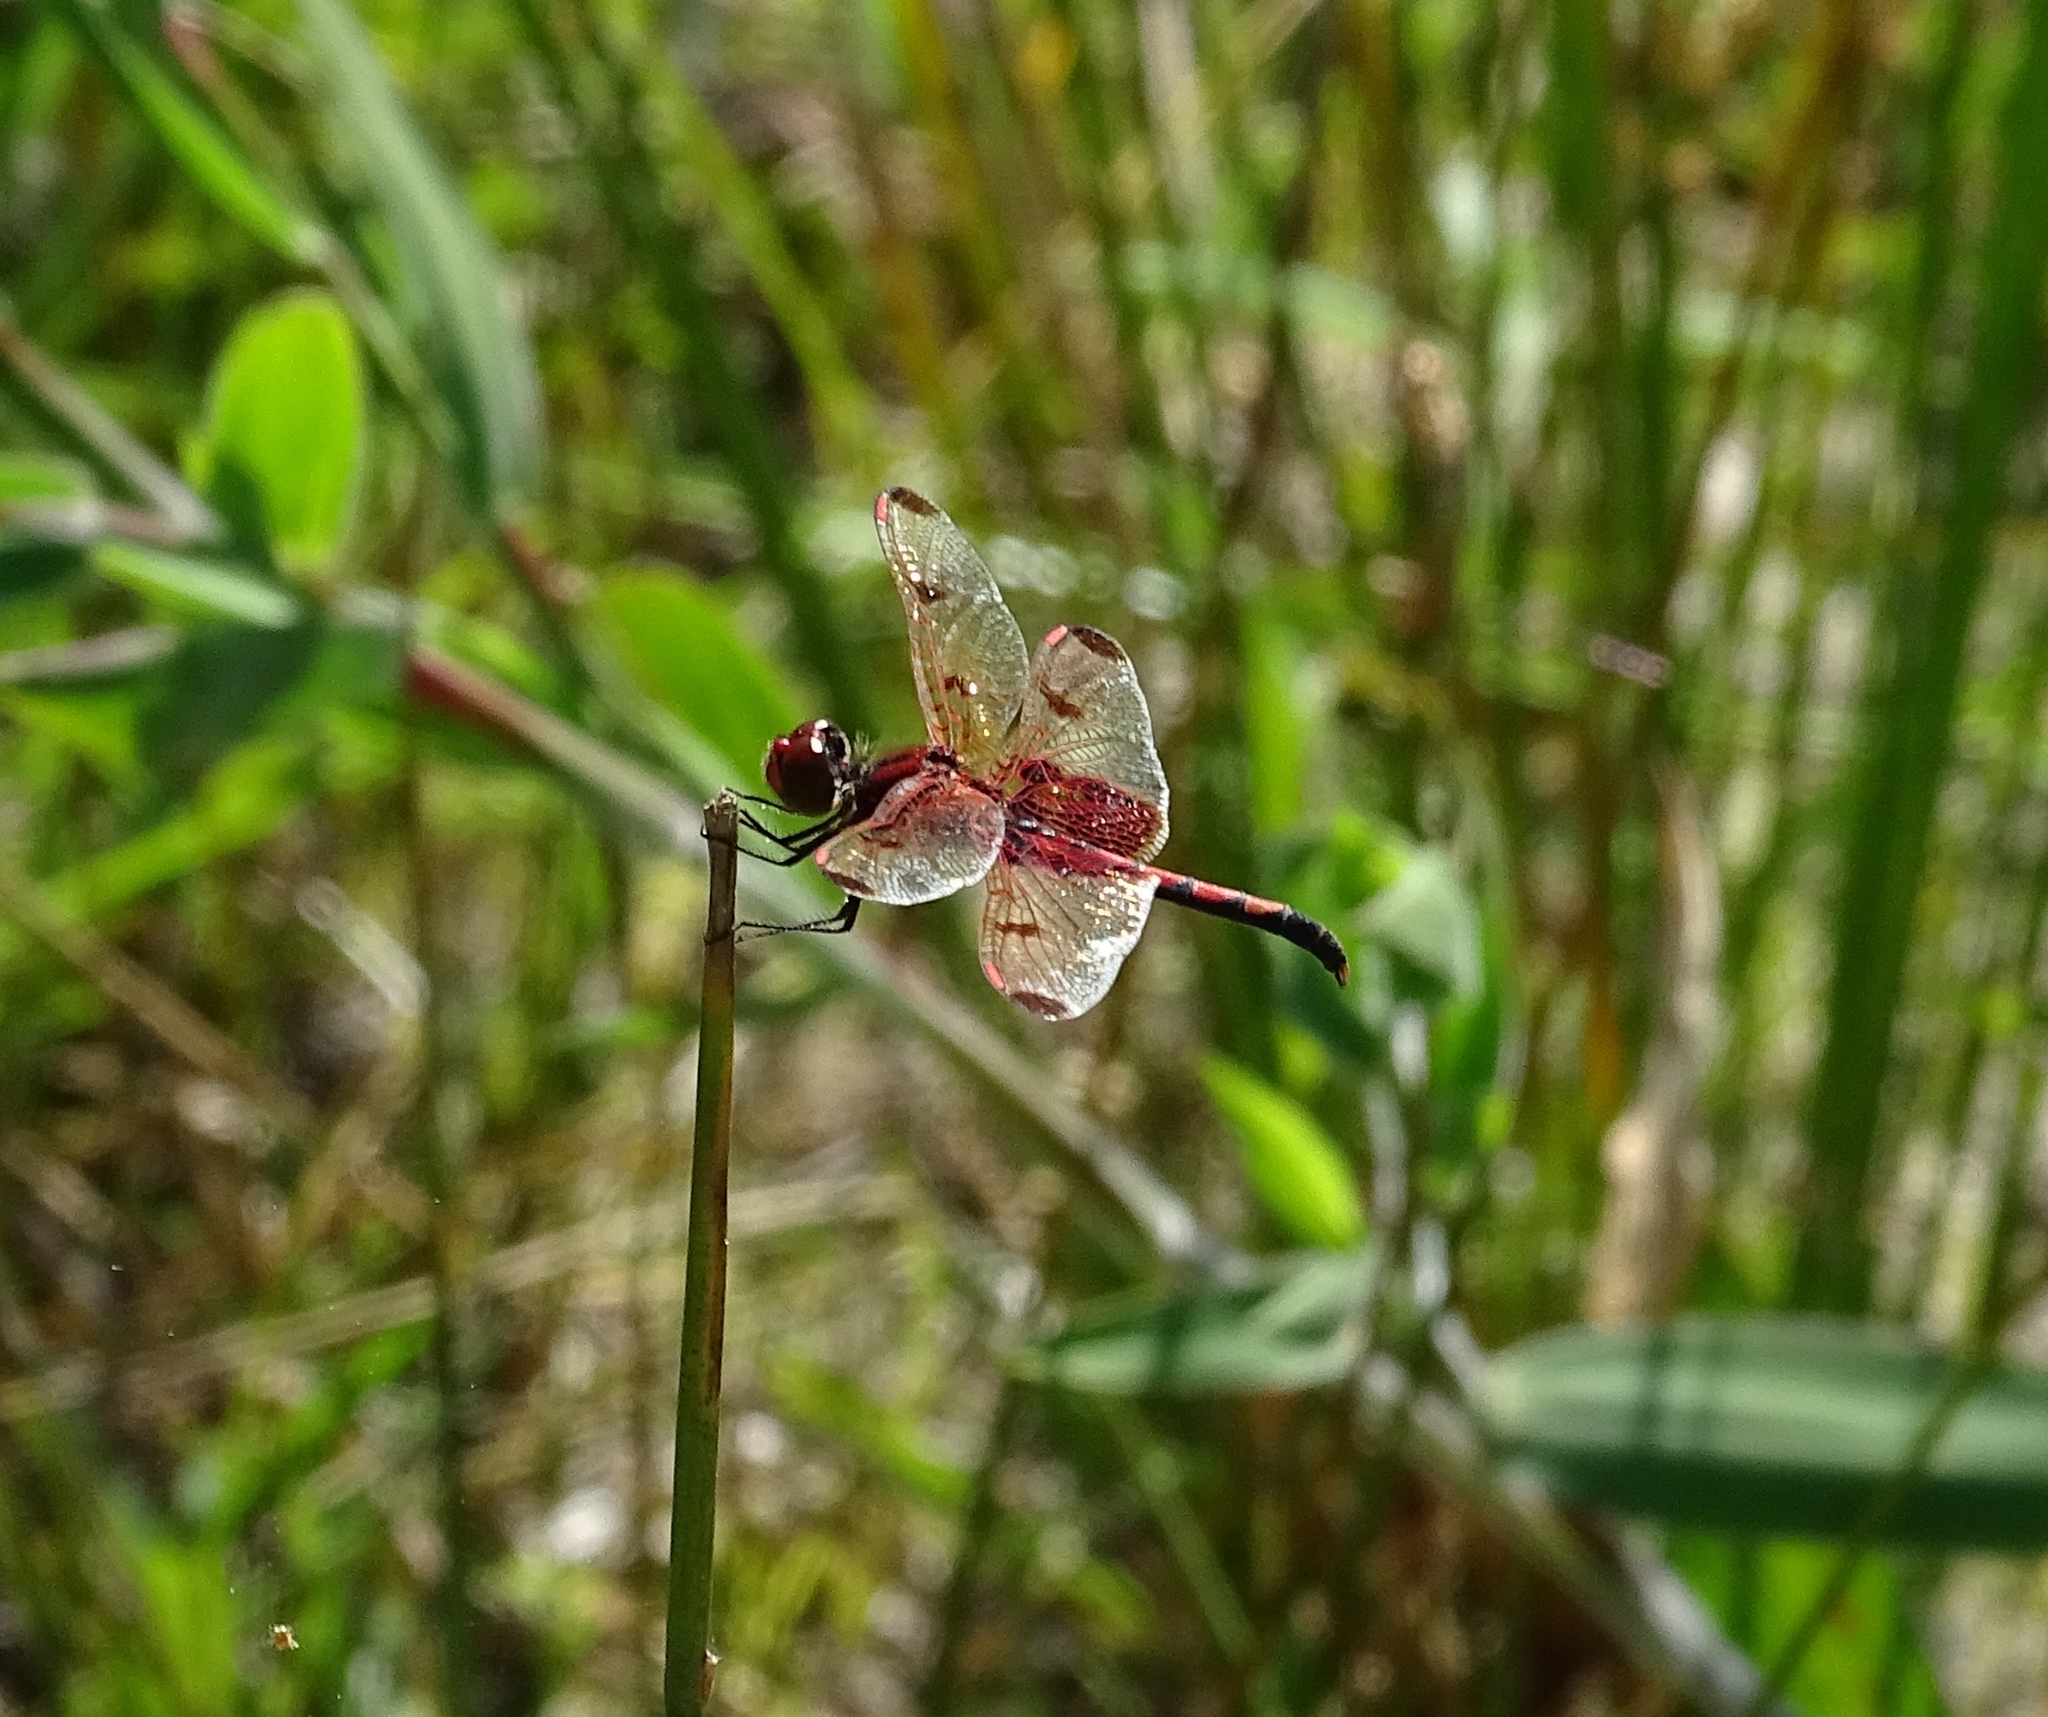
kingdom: Animalia
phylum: Arthropoda
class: Insecta
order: Odonata
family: Libellulidae
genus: Celithemis
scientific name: Celithemis elisa
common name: Calico pennant
